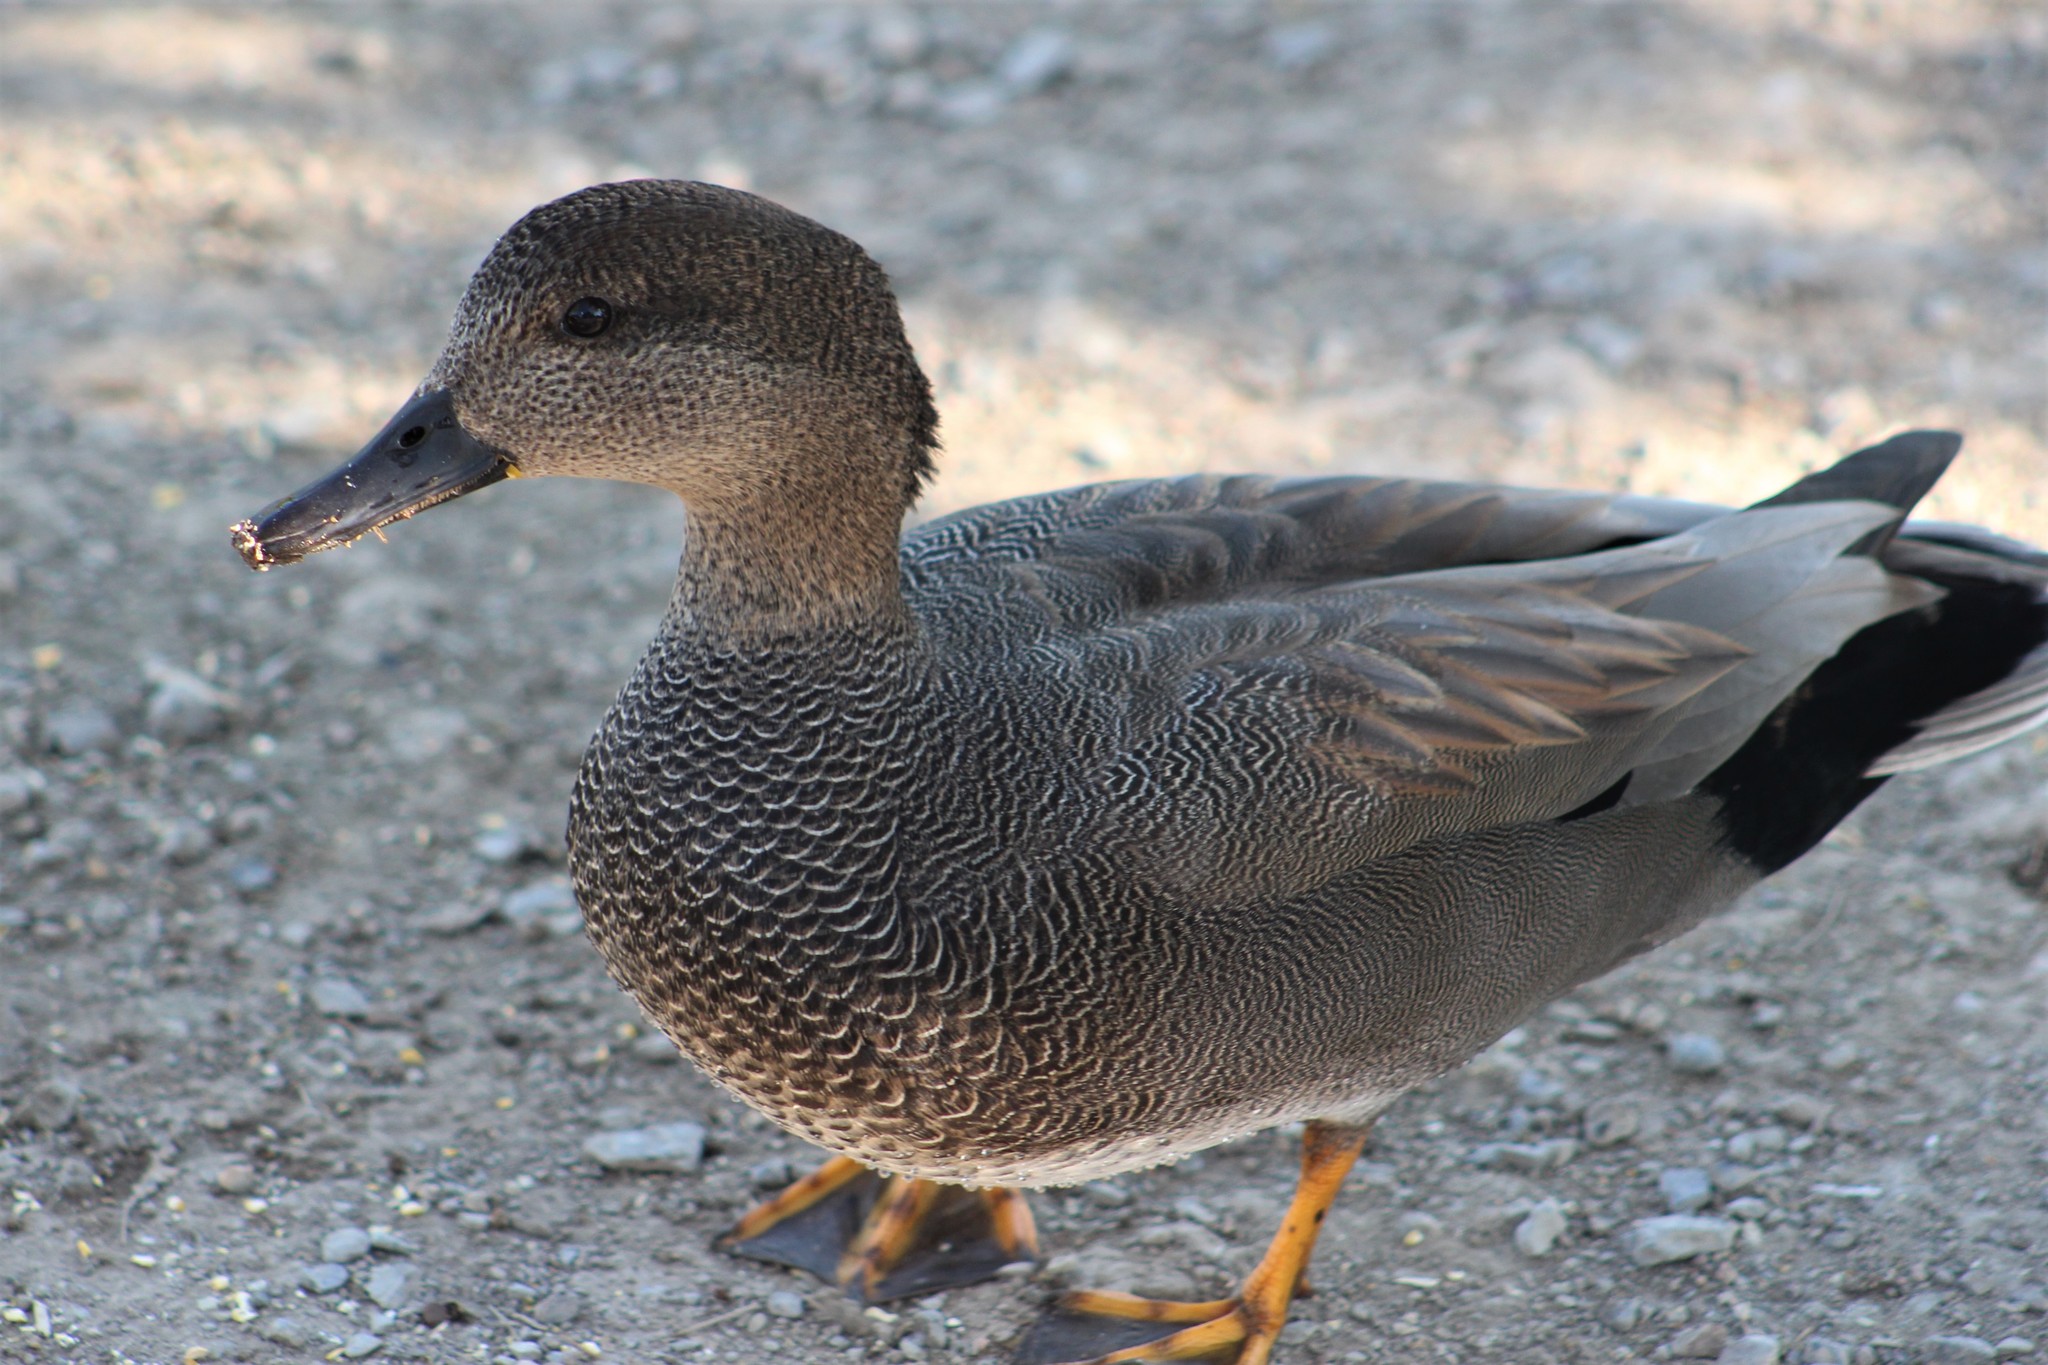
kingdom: Animalia
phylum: Chordata
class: Aves
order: Anseriformes
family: Anatidae
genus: Mareca
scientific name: Mareca strepera
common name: Gadwall
